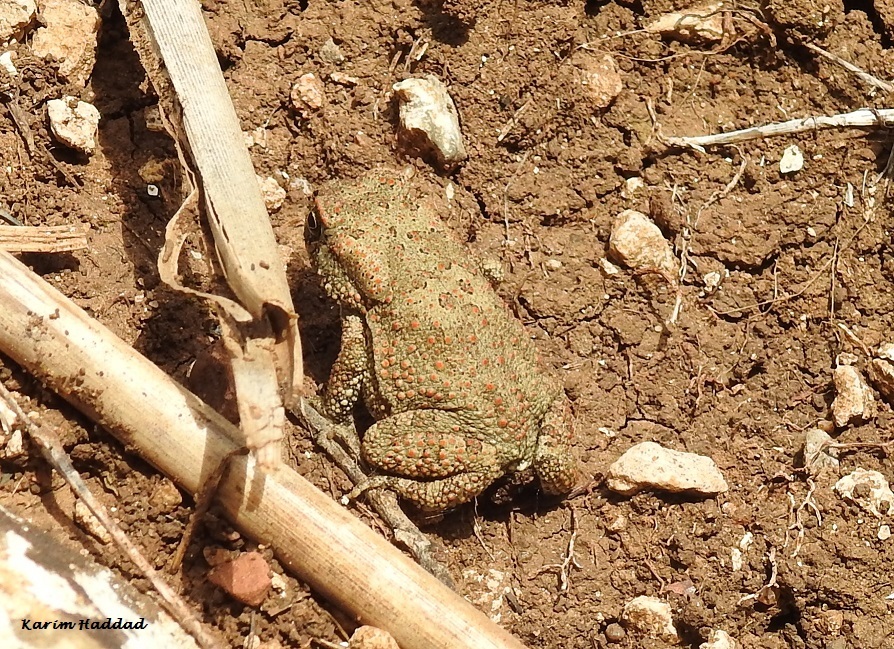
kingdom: Animalia
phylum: Chordata
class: Amphibia
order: Anura
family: Bufonidae
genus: Sclerophrys
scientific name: Sclerophrys mauritanica
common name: Berber toad
